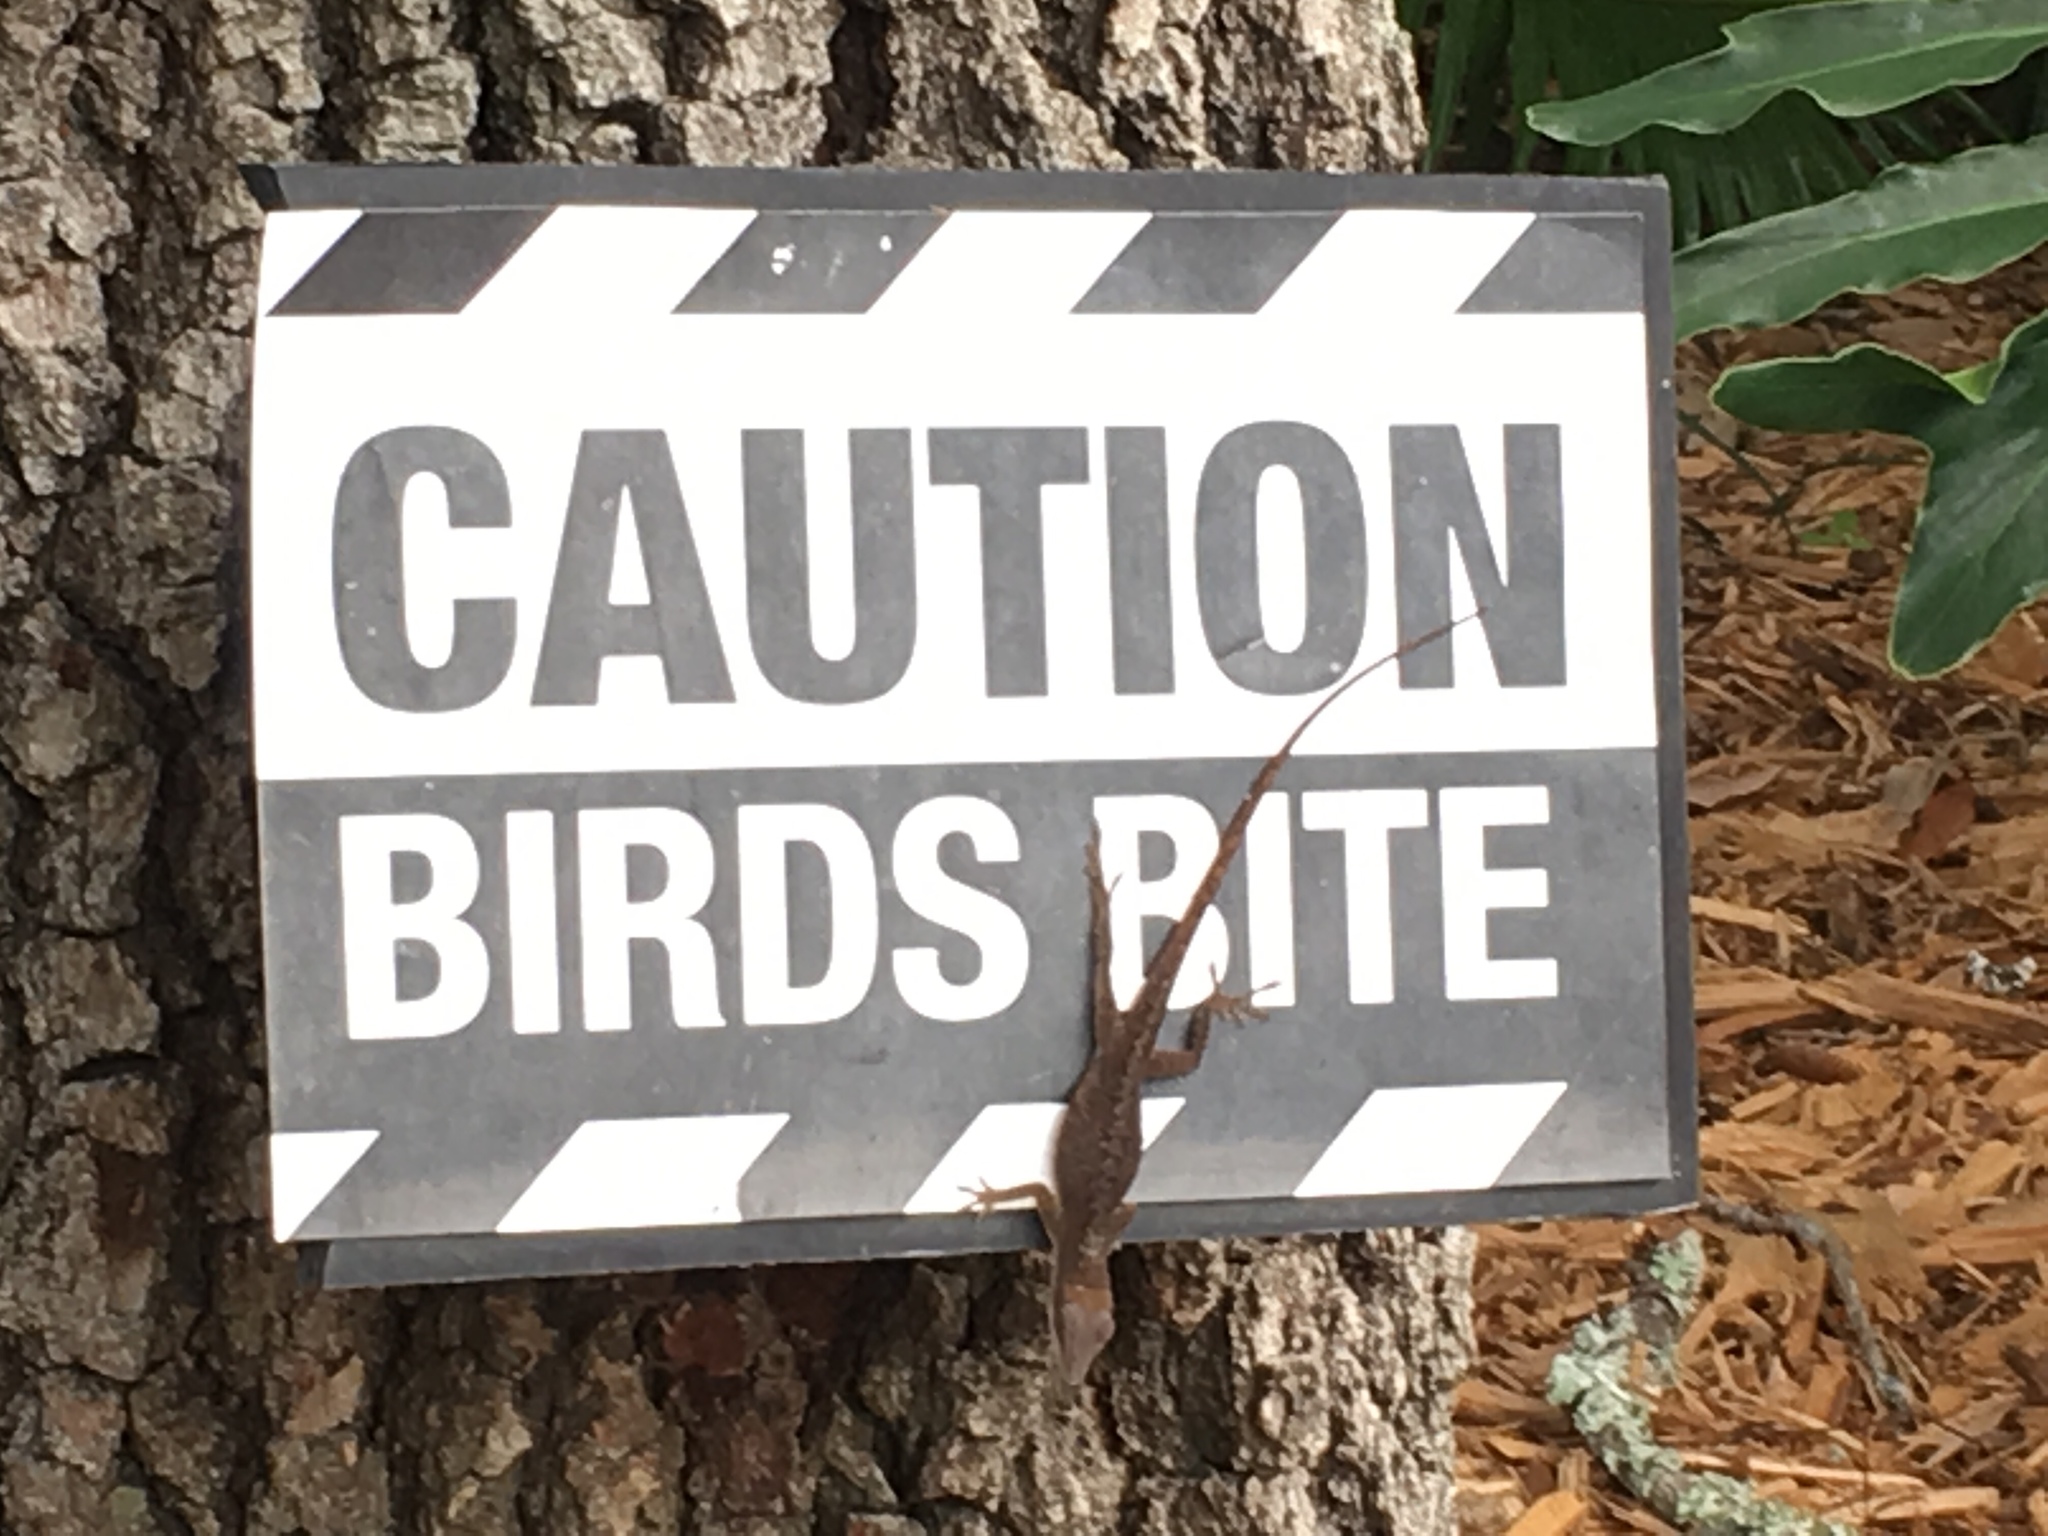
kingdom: Animalia
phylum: Chordata
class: Squamata
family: Dactyloidae
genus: Anolis
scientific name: Anolis carolinensis
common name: Green anole
